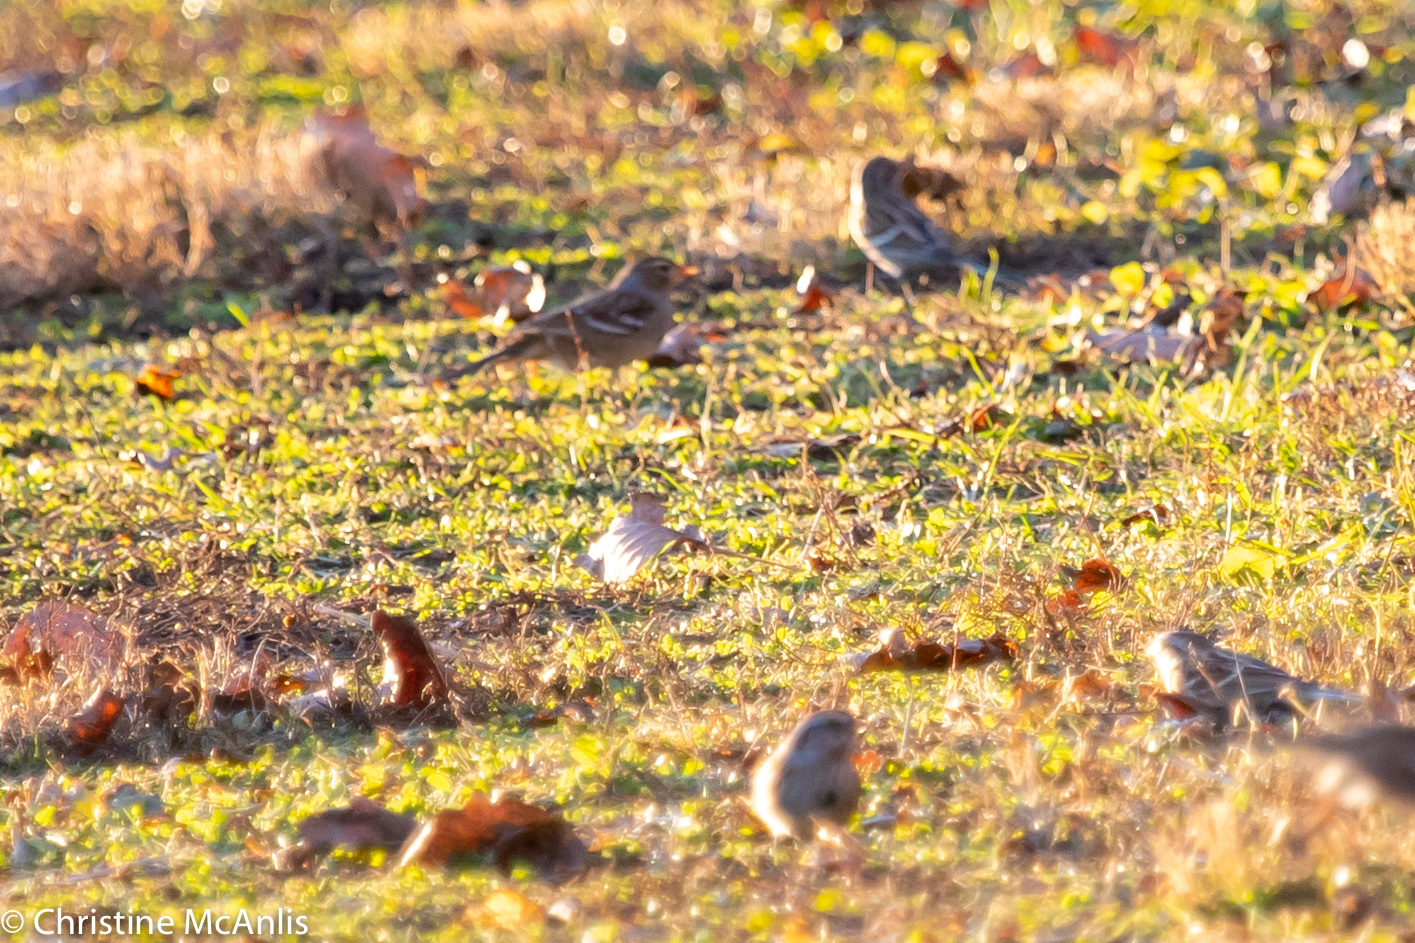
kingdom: Animalia
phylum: Chordata
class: Aves
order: Passeriformes
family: Passerellidae
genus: Zonotrichia
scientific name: Zonotrichia leucophrys
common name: White-crowned sparrow
